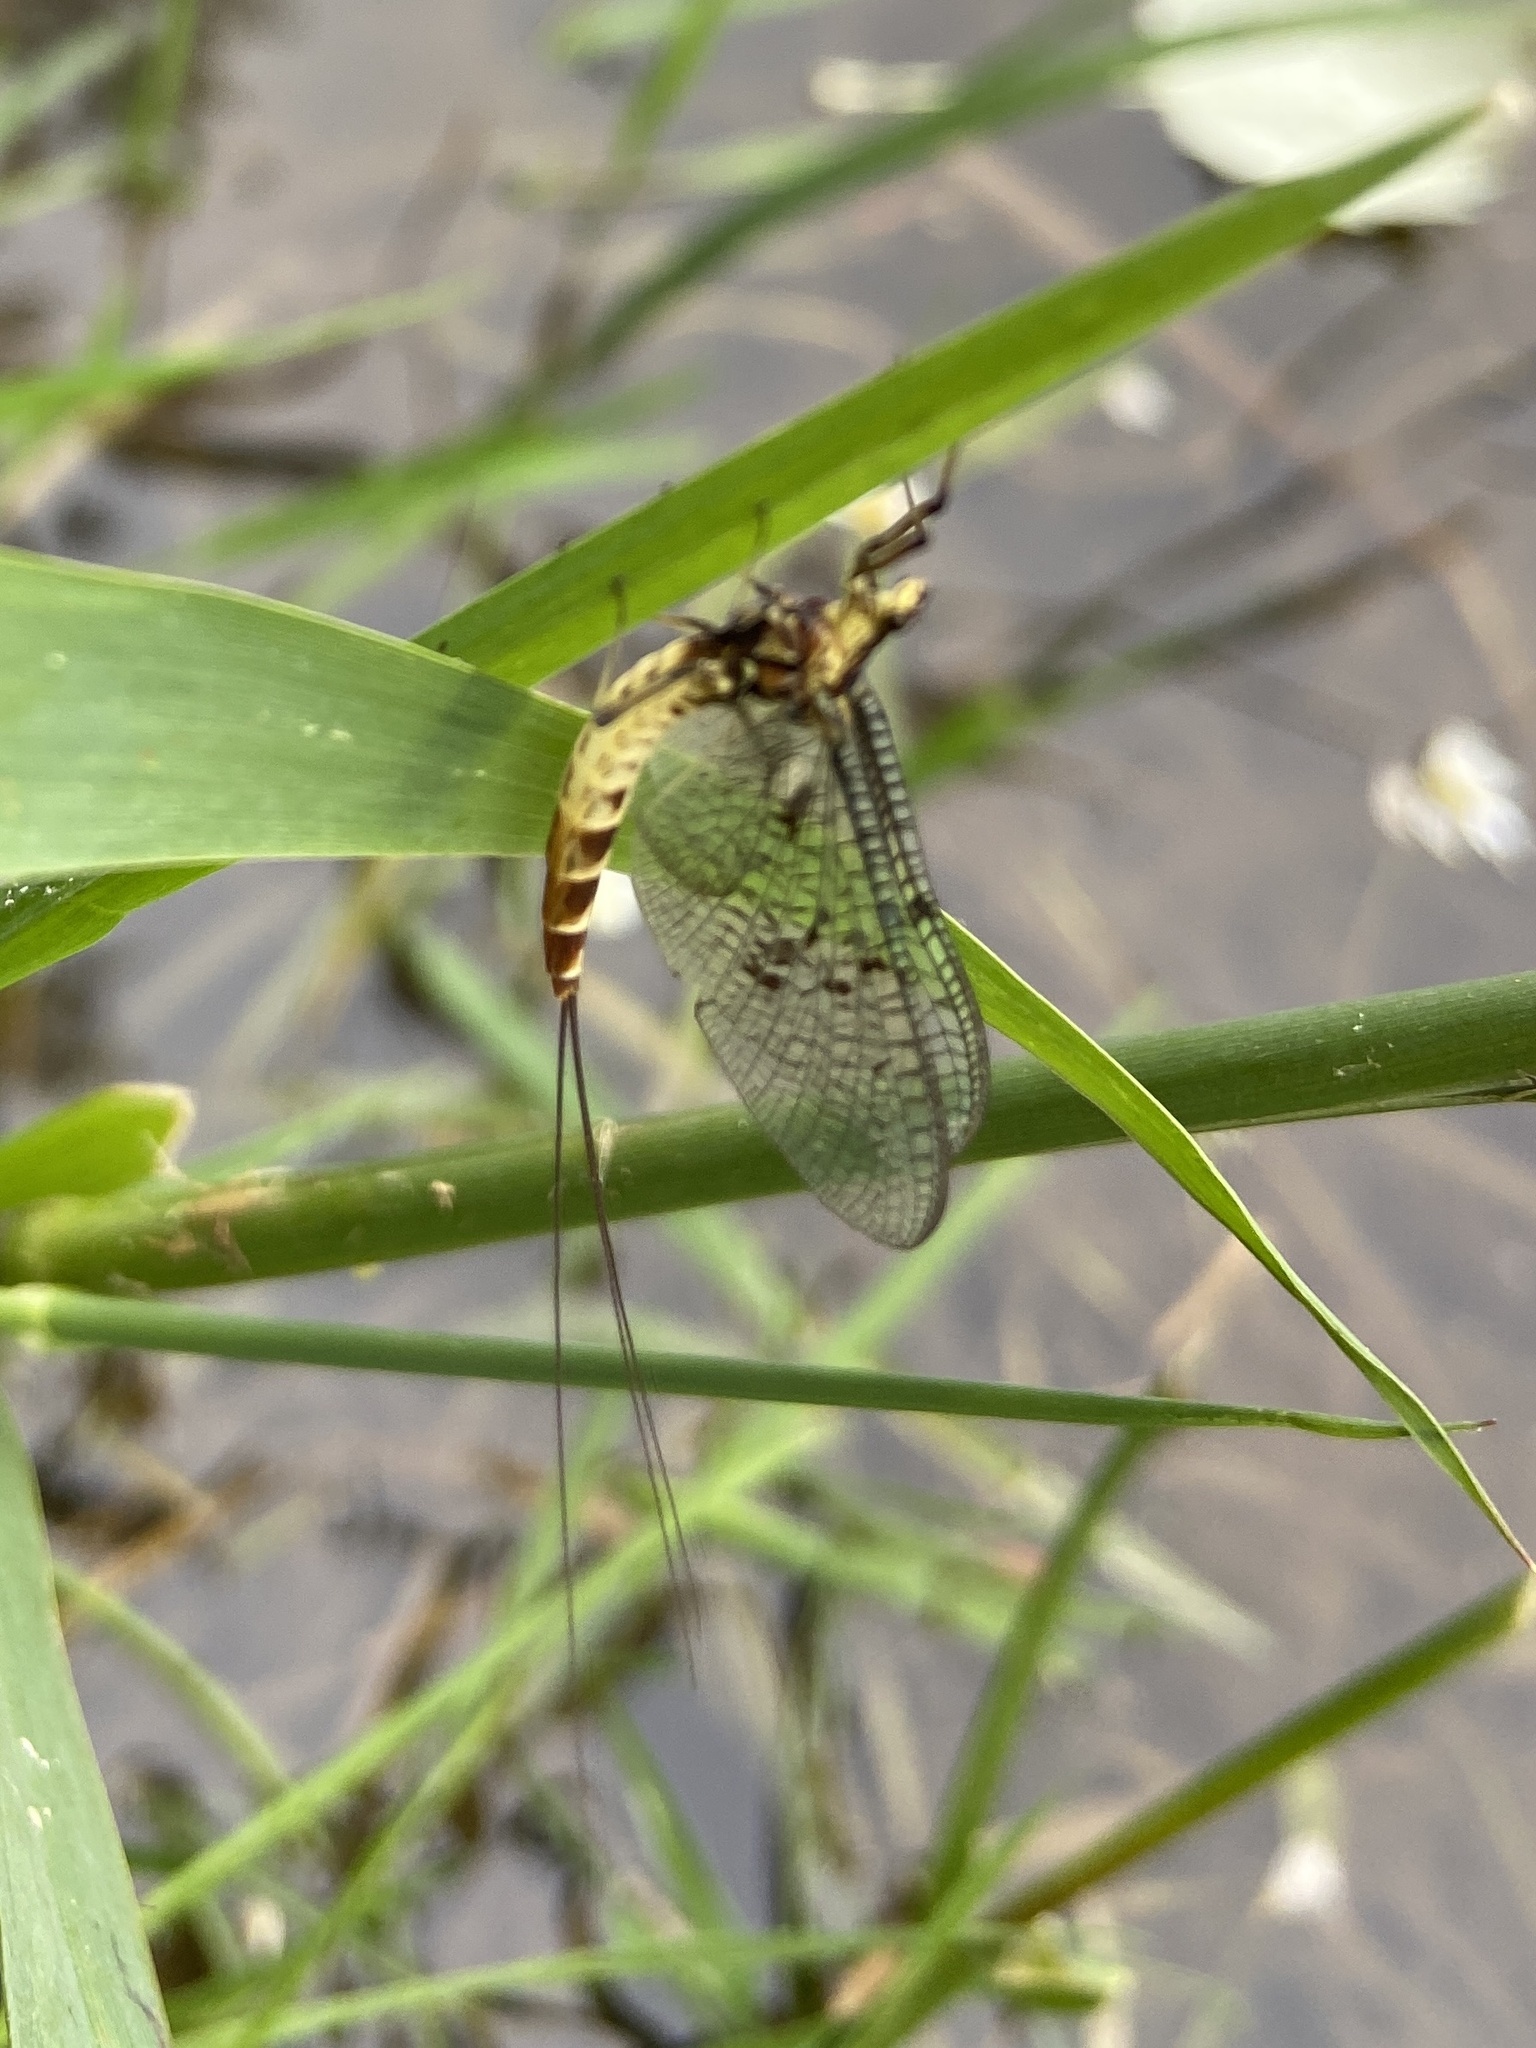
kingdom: Animalia
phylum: Arthropoda
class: Insecta
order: Ephemeroptera
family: Ephemeridae
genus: Ephemera
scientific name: Ephemera danica
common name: Green dun
